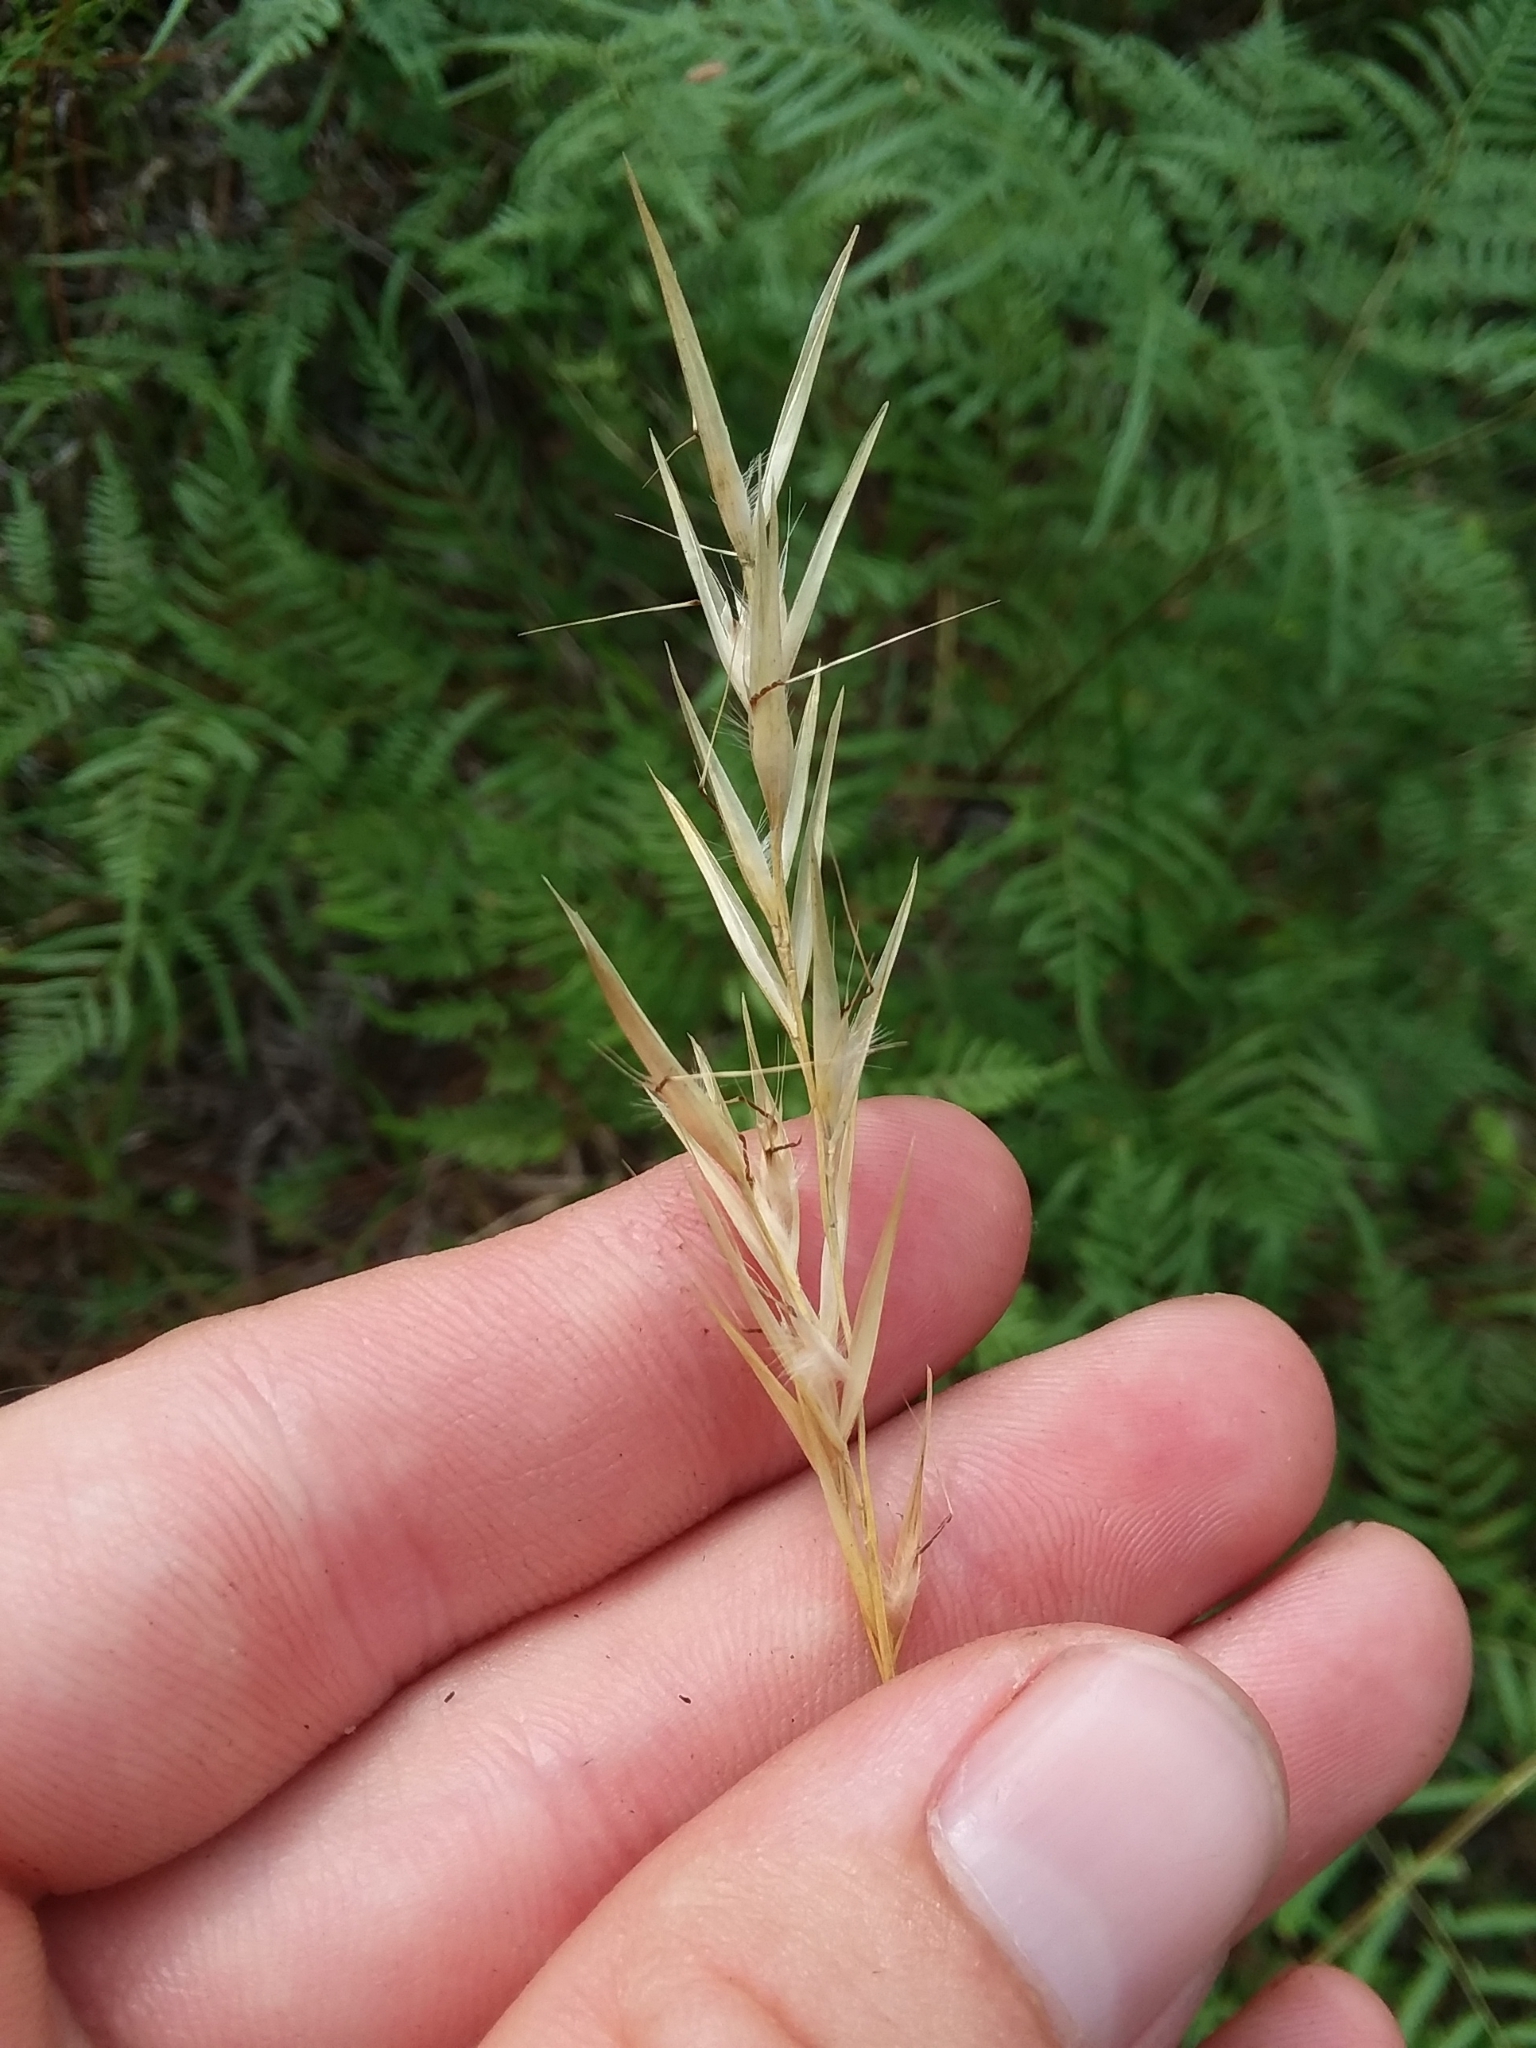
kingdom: Plantae
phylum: Tracheophyta
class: Liliopsida
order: Poales
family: Poaceae
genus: Danthonia
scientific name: Danthonia sericea
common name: Downy danthonia
